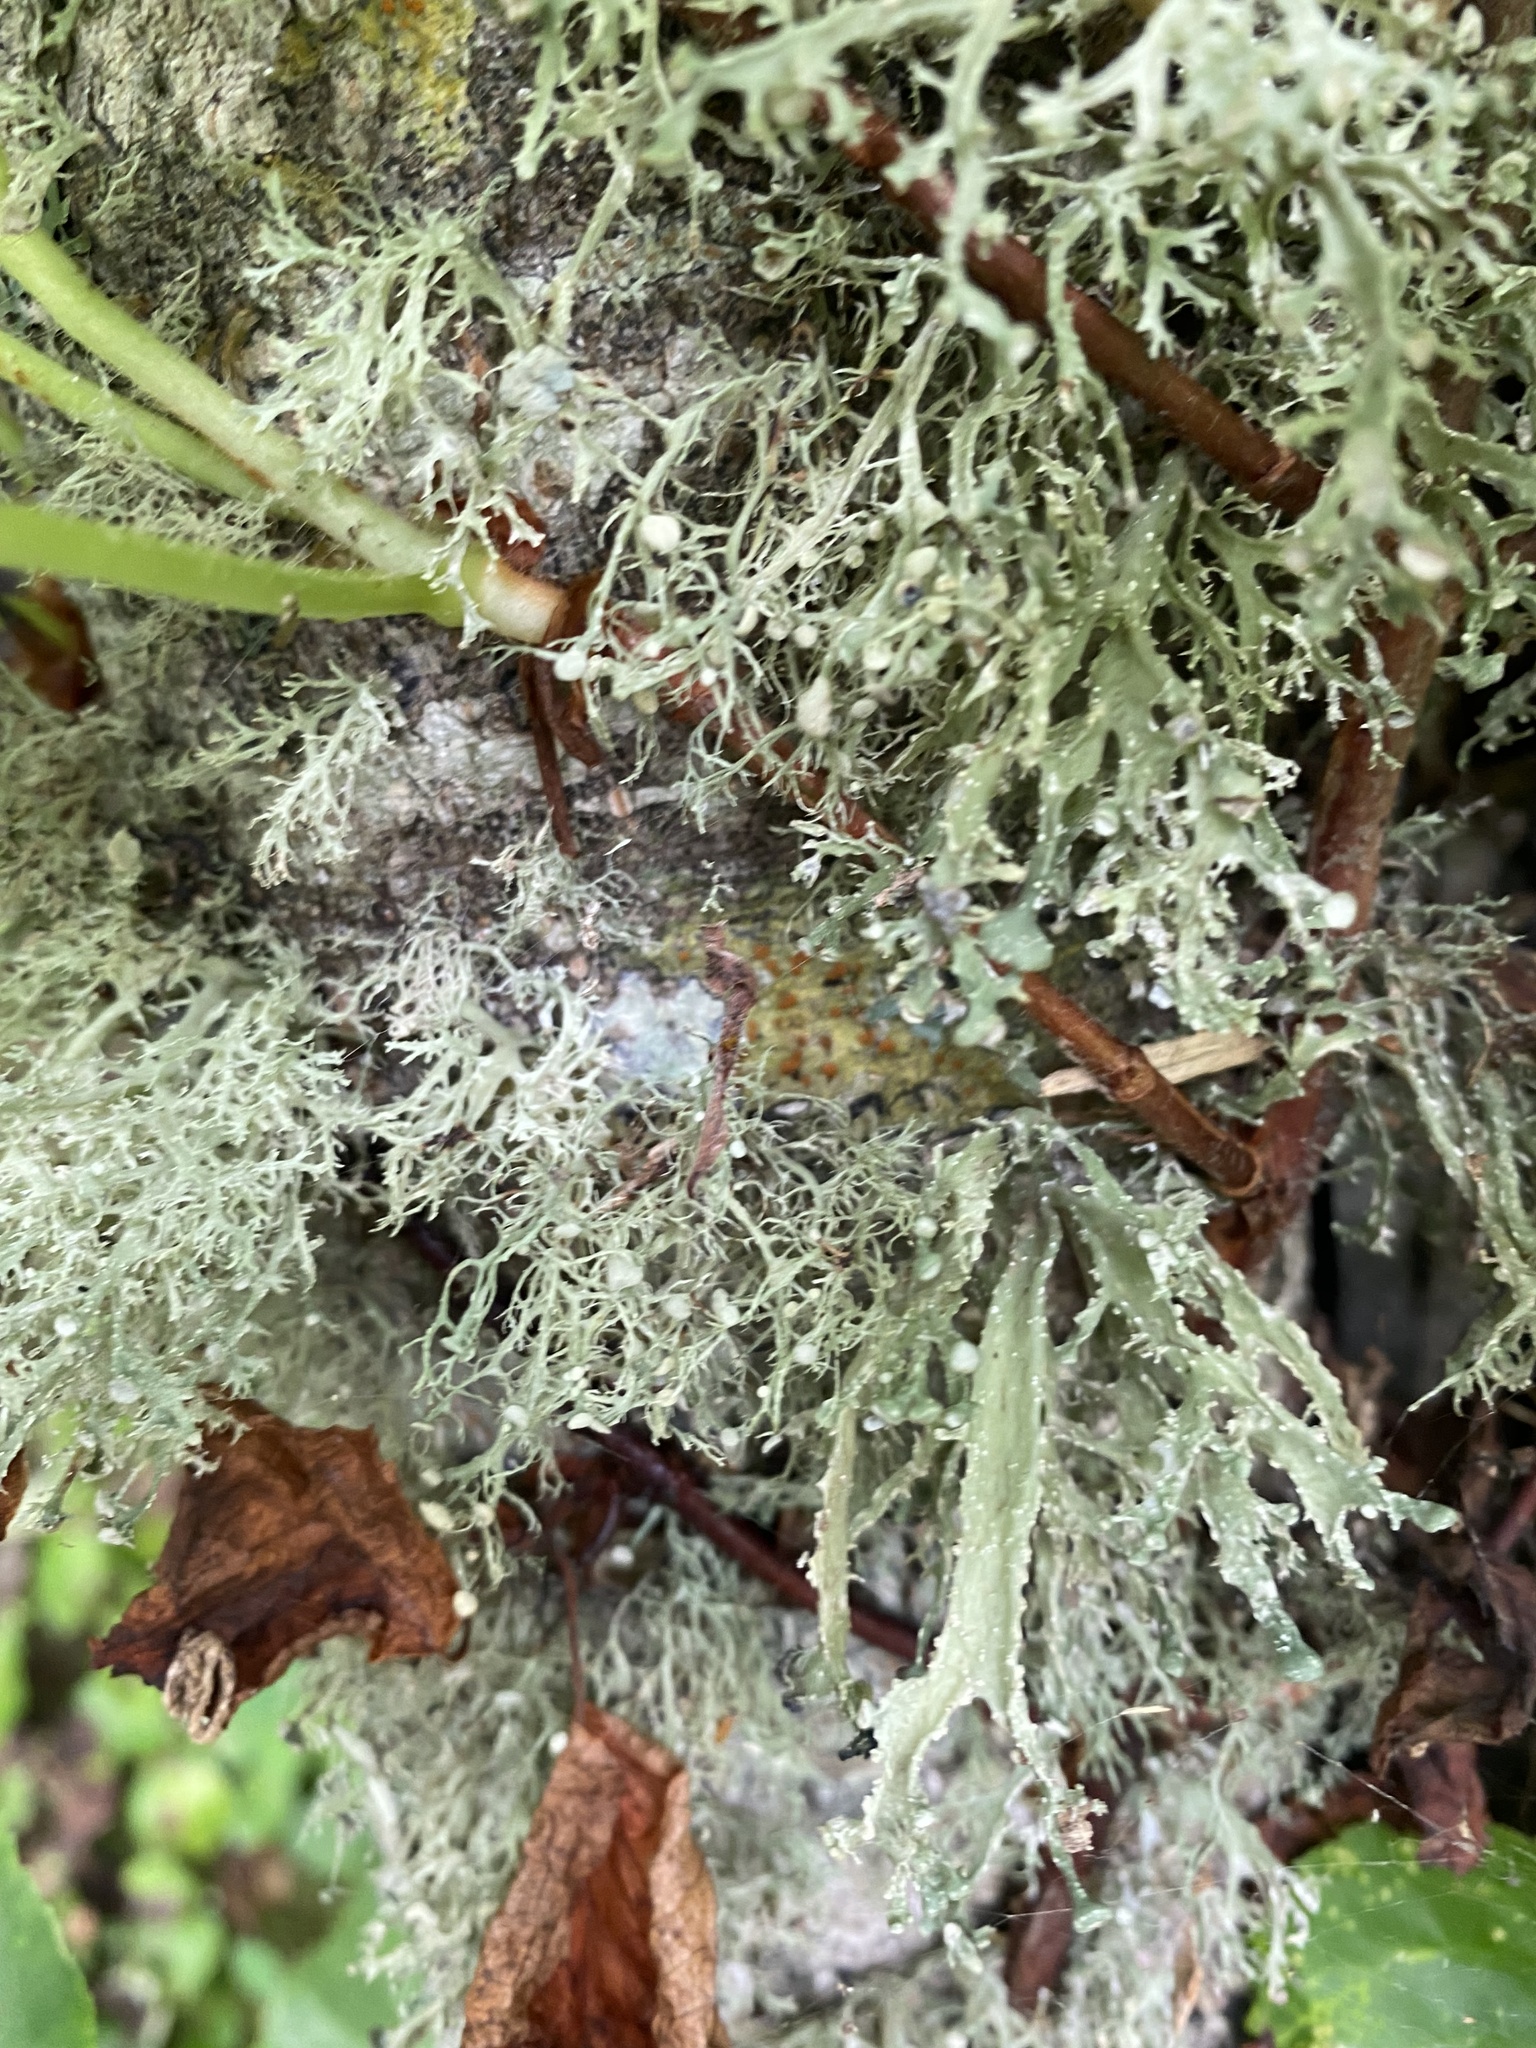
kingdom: Fungi
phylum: Ascomycota
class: Lecanoromycetes
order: Lecanorales
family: Ramalinaceae
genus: Ramalina
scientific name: Ramalina
